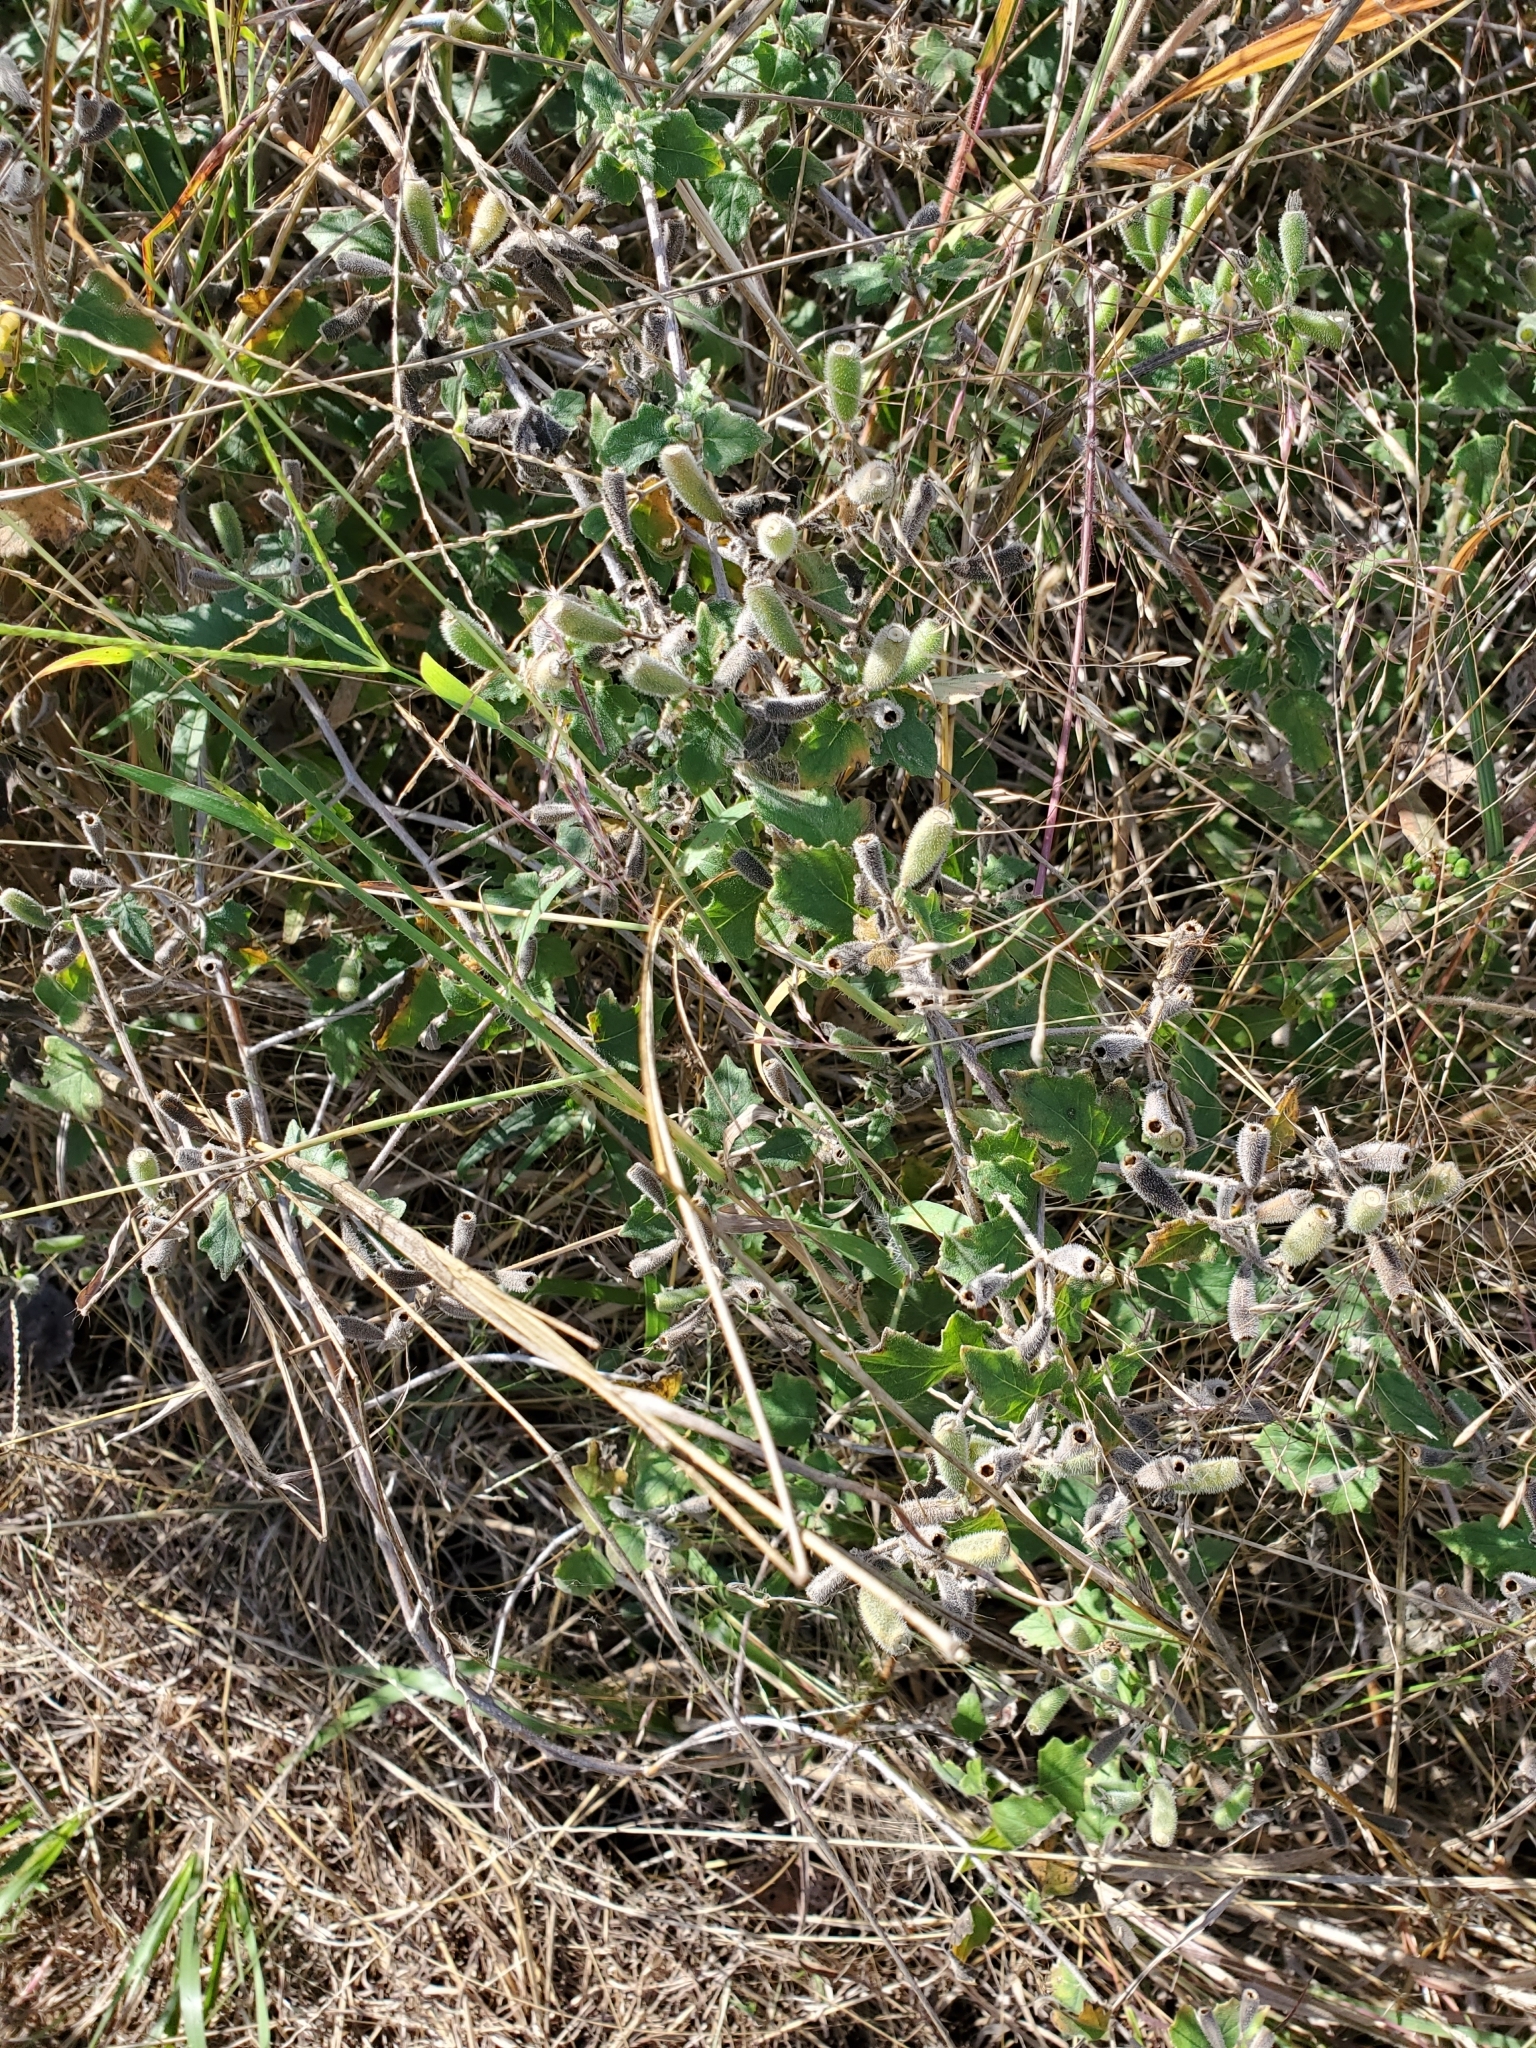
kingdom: Plantae
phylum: Tracheophyta
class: Magnoliopsida
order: Cornales
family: Loasaceae
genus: Mentzelia
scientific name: Mentzelia oligosperma
